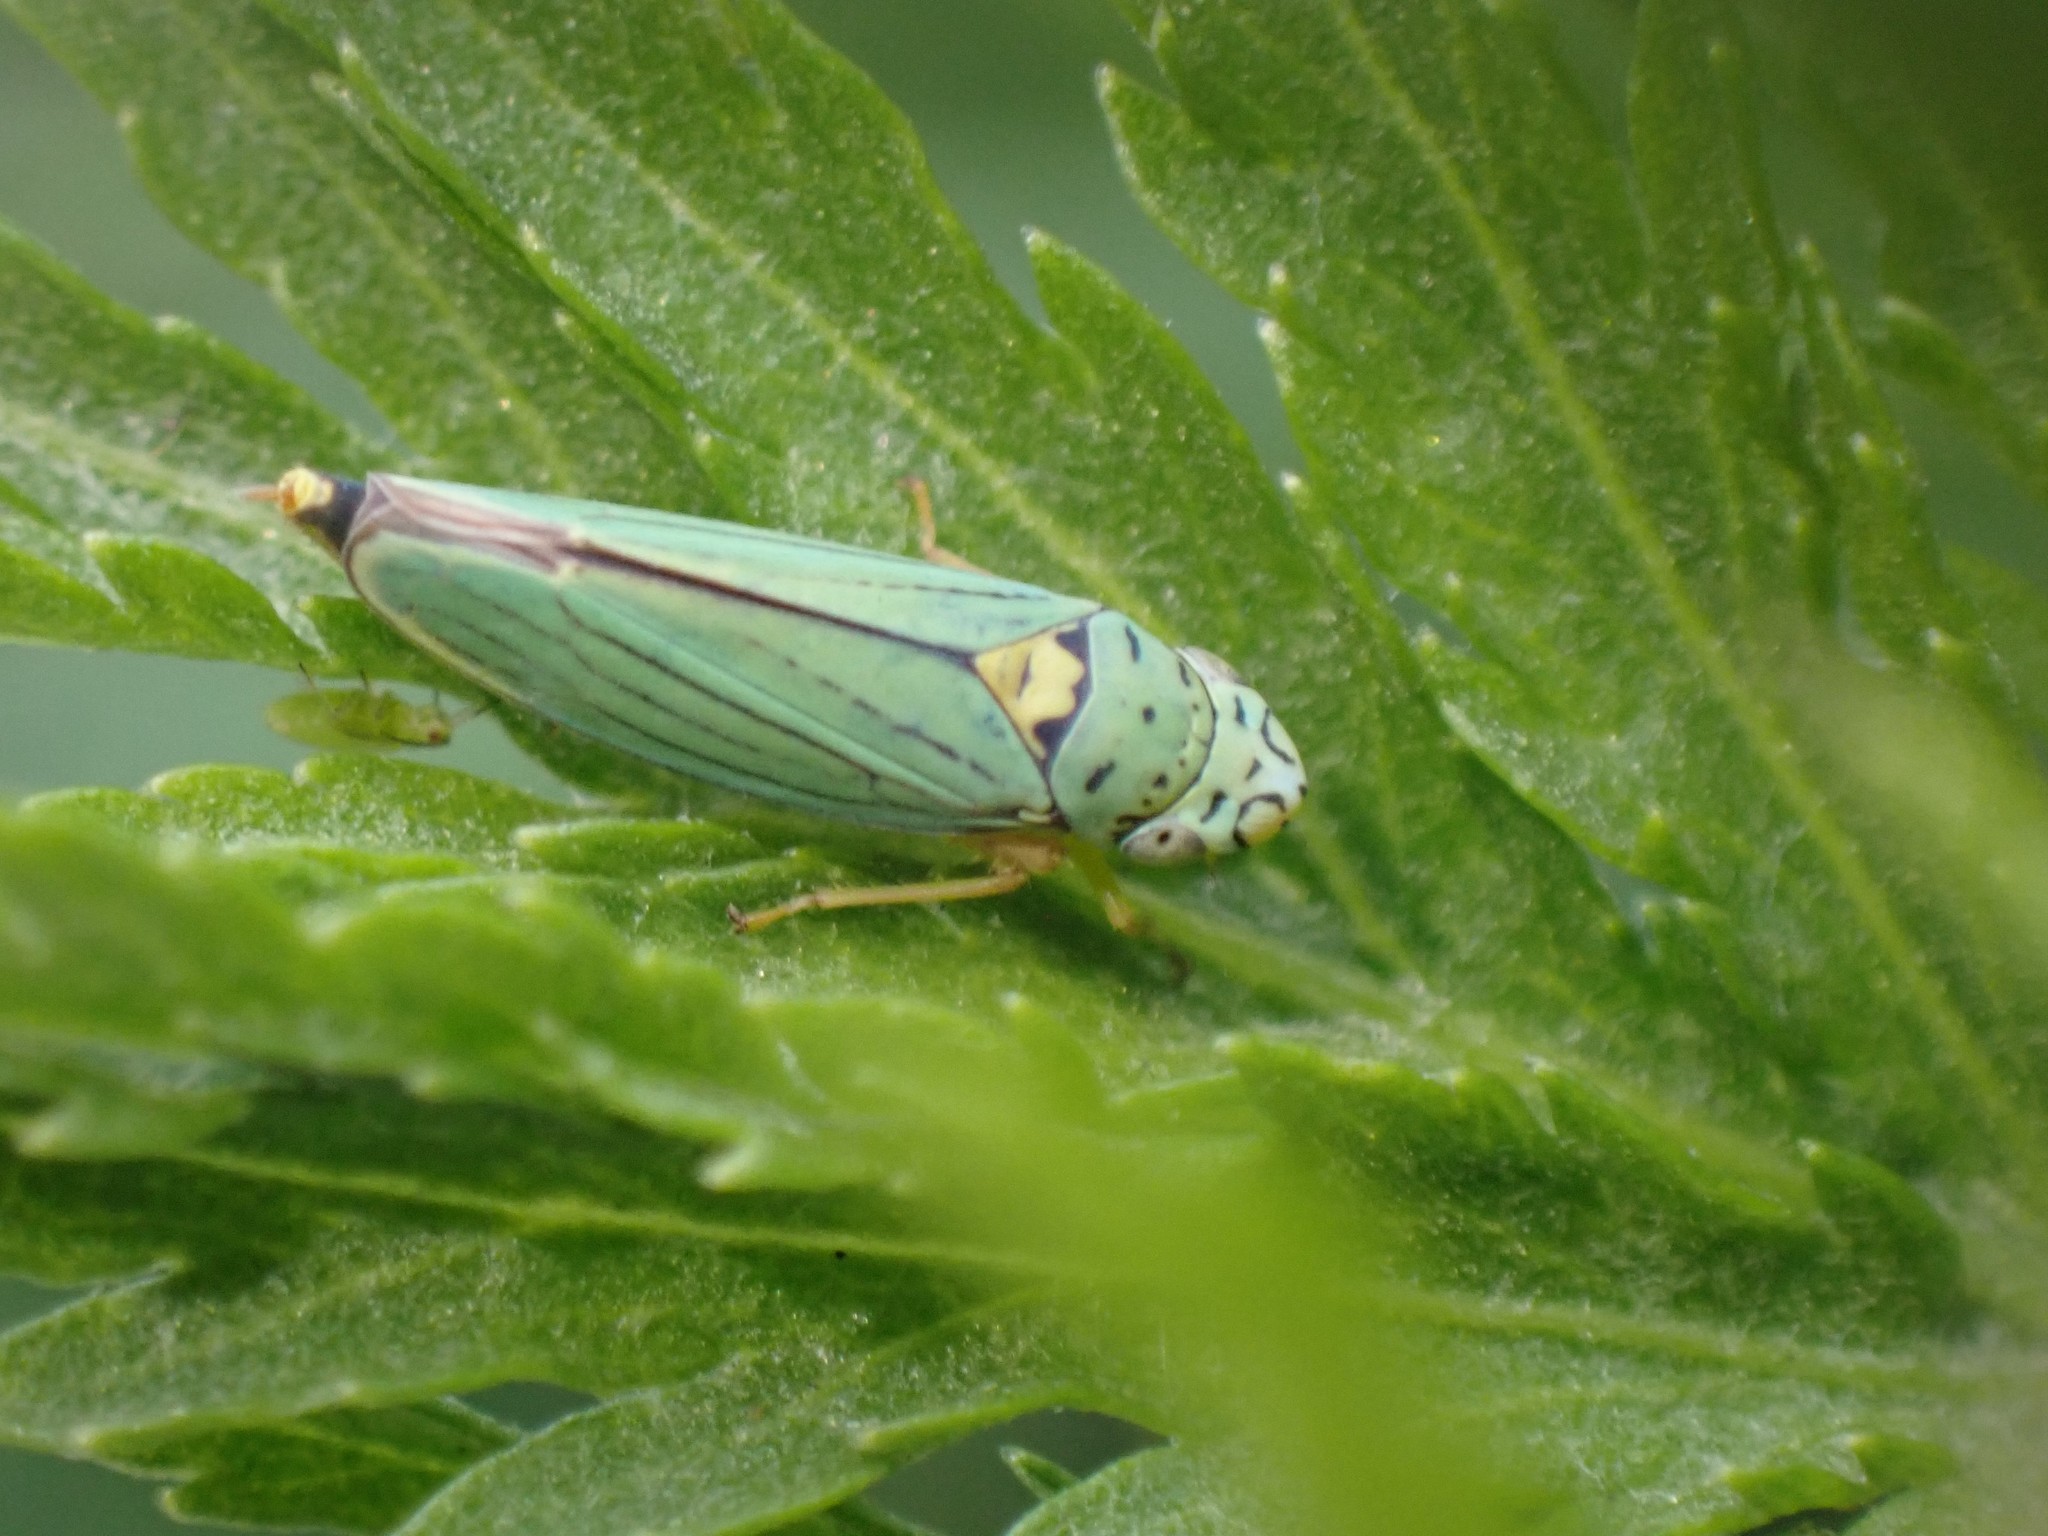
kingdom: Animalia
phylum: Arthropoda
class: Insecta
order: Hemiptera
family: Cicadellidae
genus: Graphocephala
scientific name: Graphocephala atropunctata
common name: Blue-green sharpshooter
